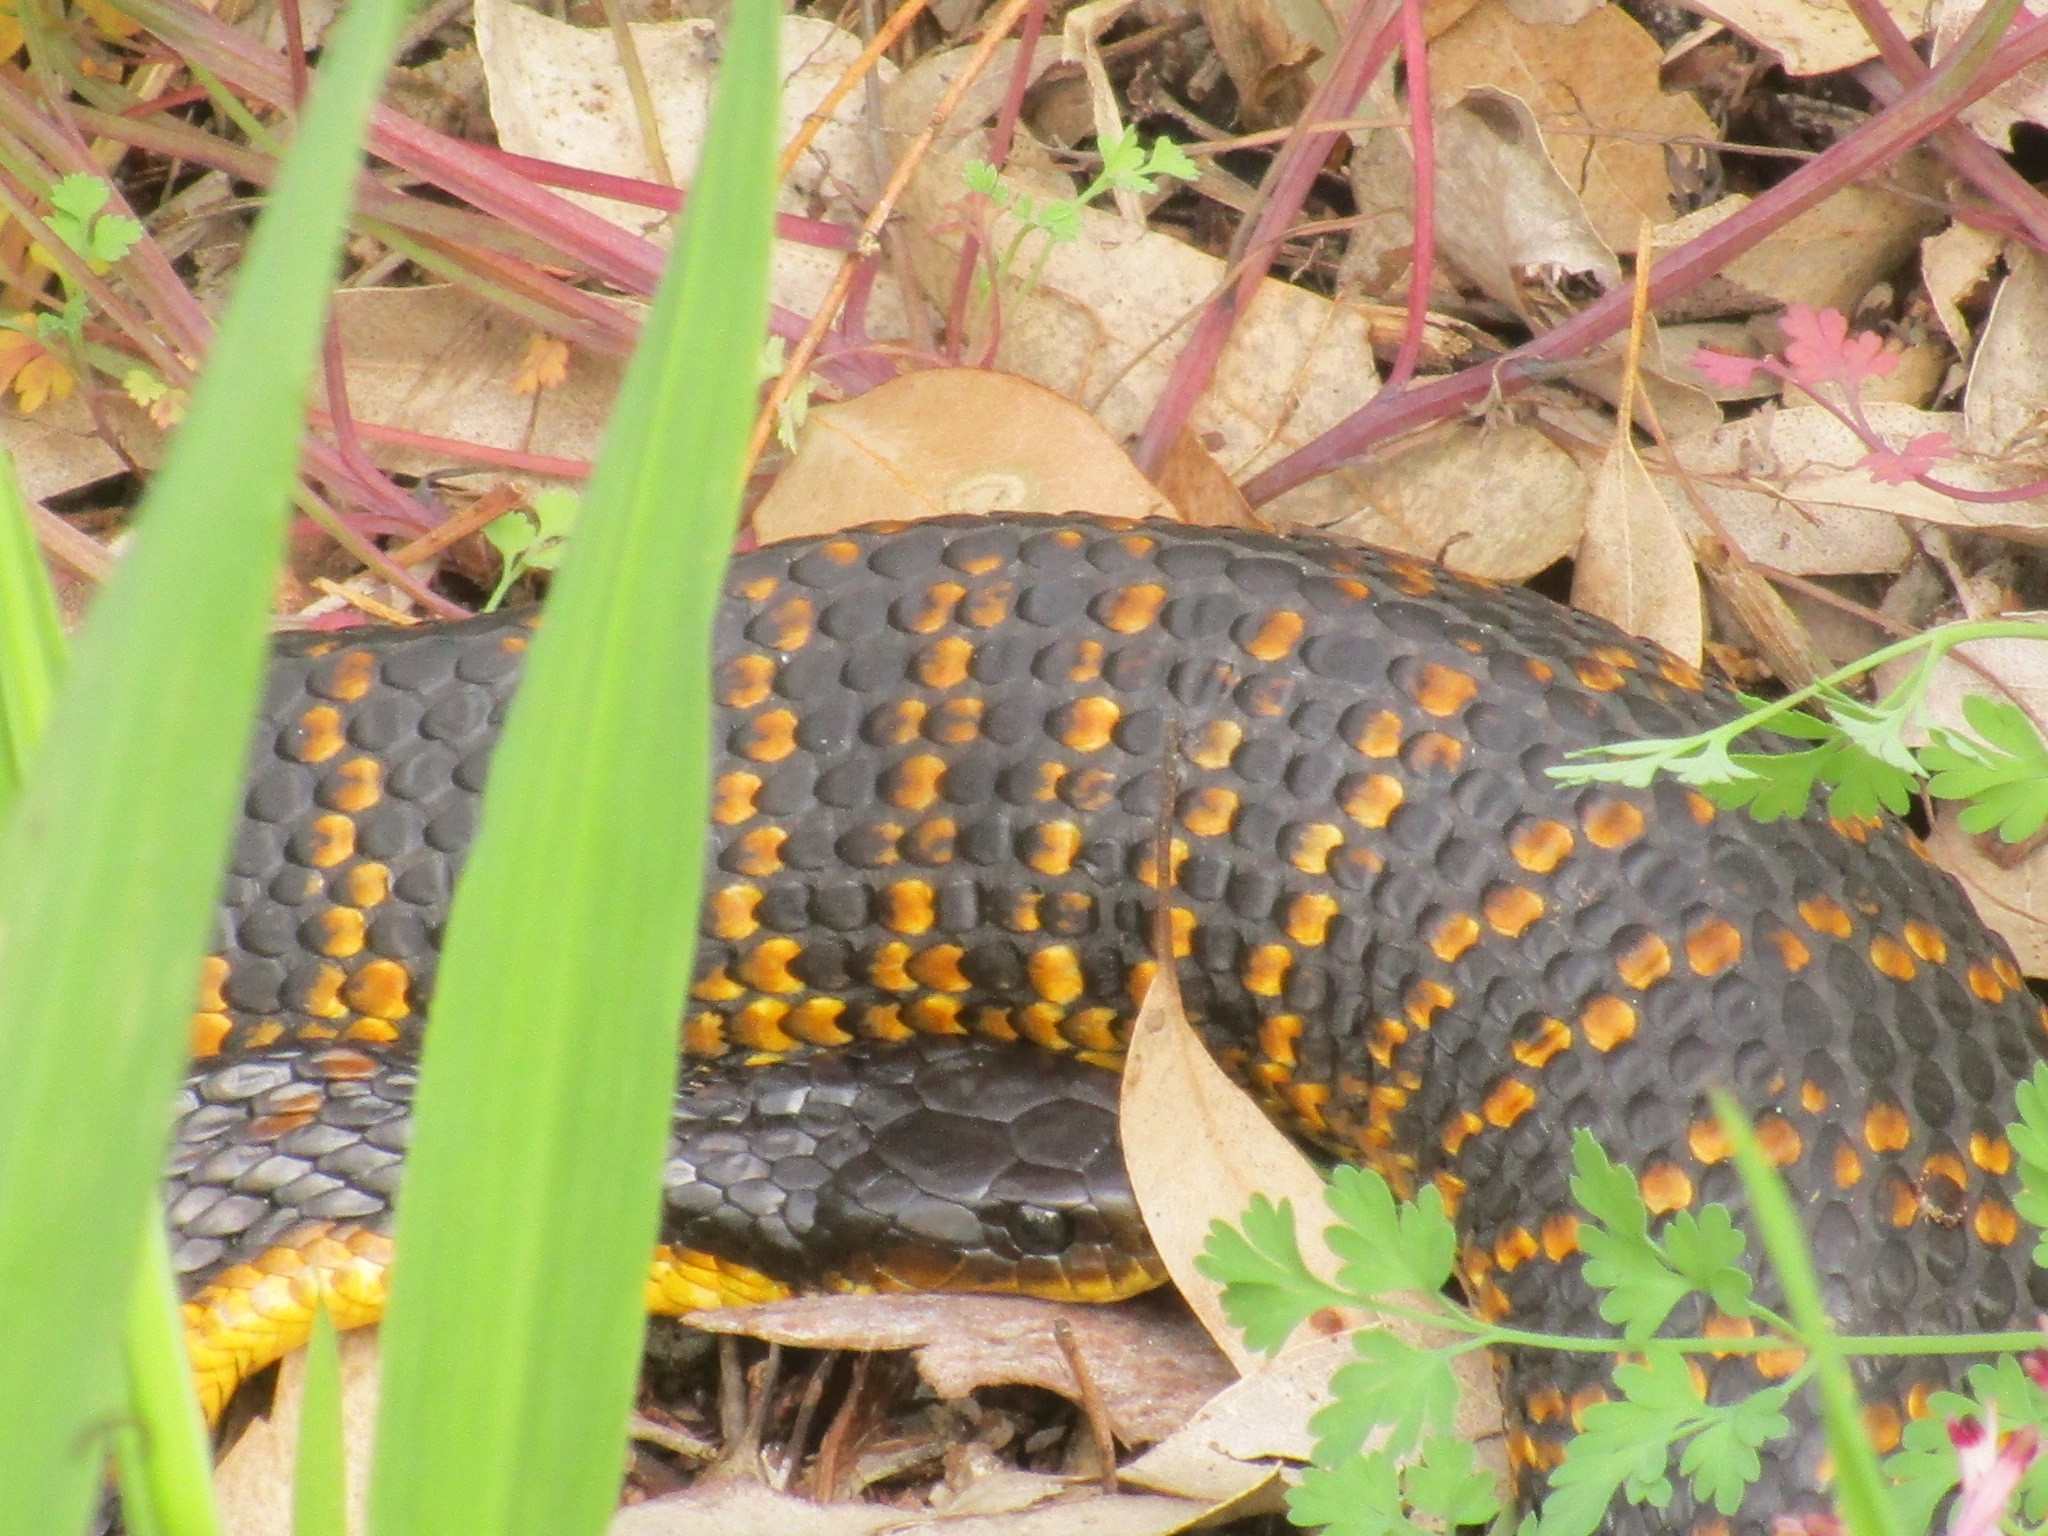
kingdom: Animalia
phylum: Chordata
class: Squamata
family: Elapidae
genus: Notechis
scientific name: Notechis scutatus
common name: Mainland tiger snake
